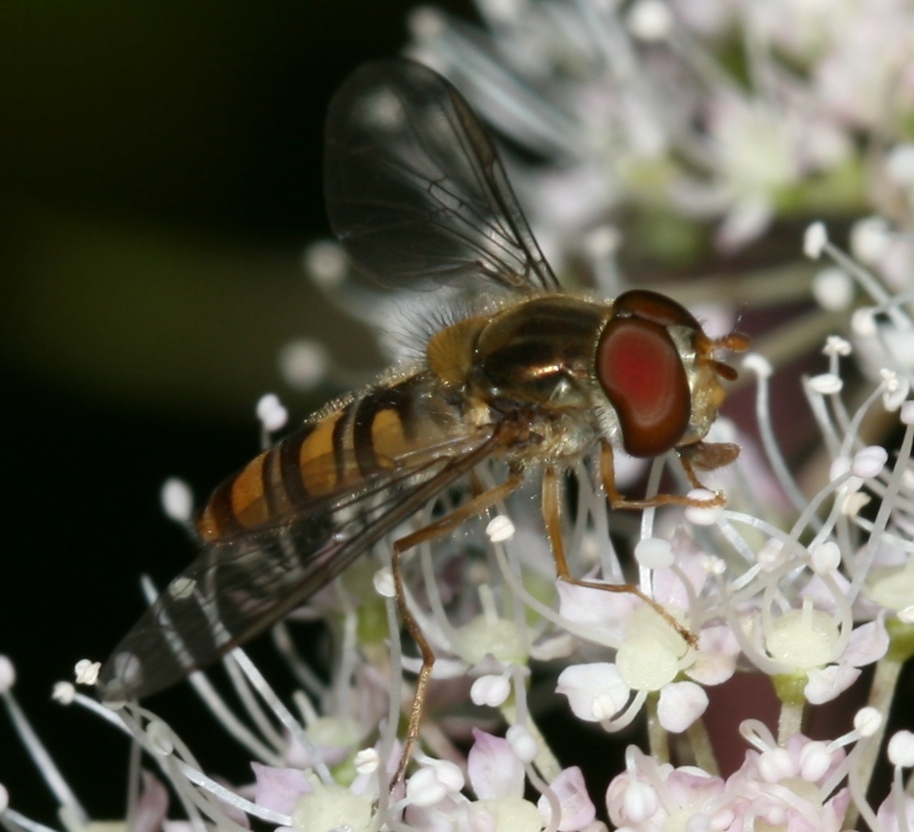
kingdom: Animalia
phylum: Arthropoda
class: Insecta
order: Diptera
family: Syrphidae
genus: Episyrphus
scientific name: Episyrphus balteatus
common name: Marmalade hoverfly
